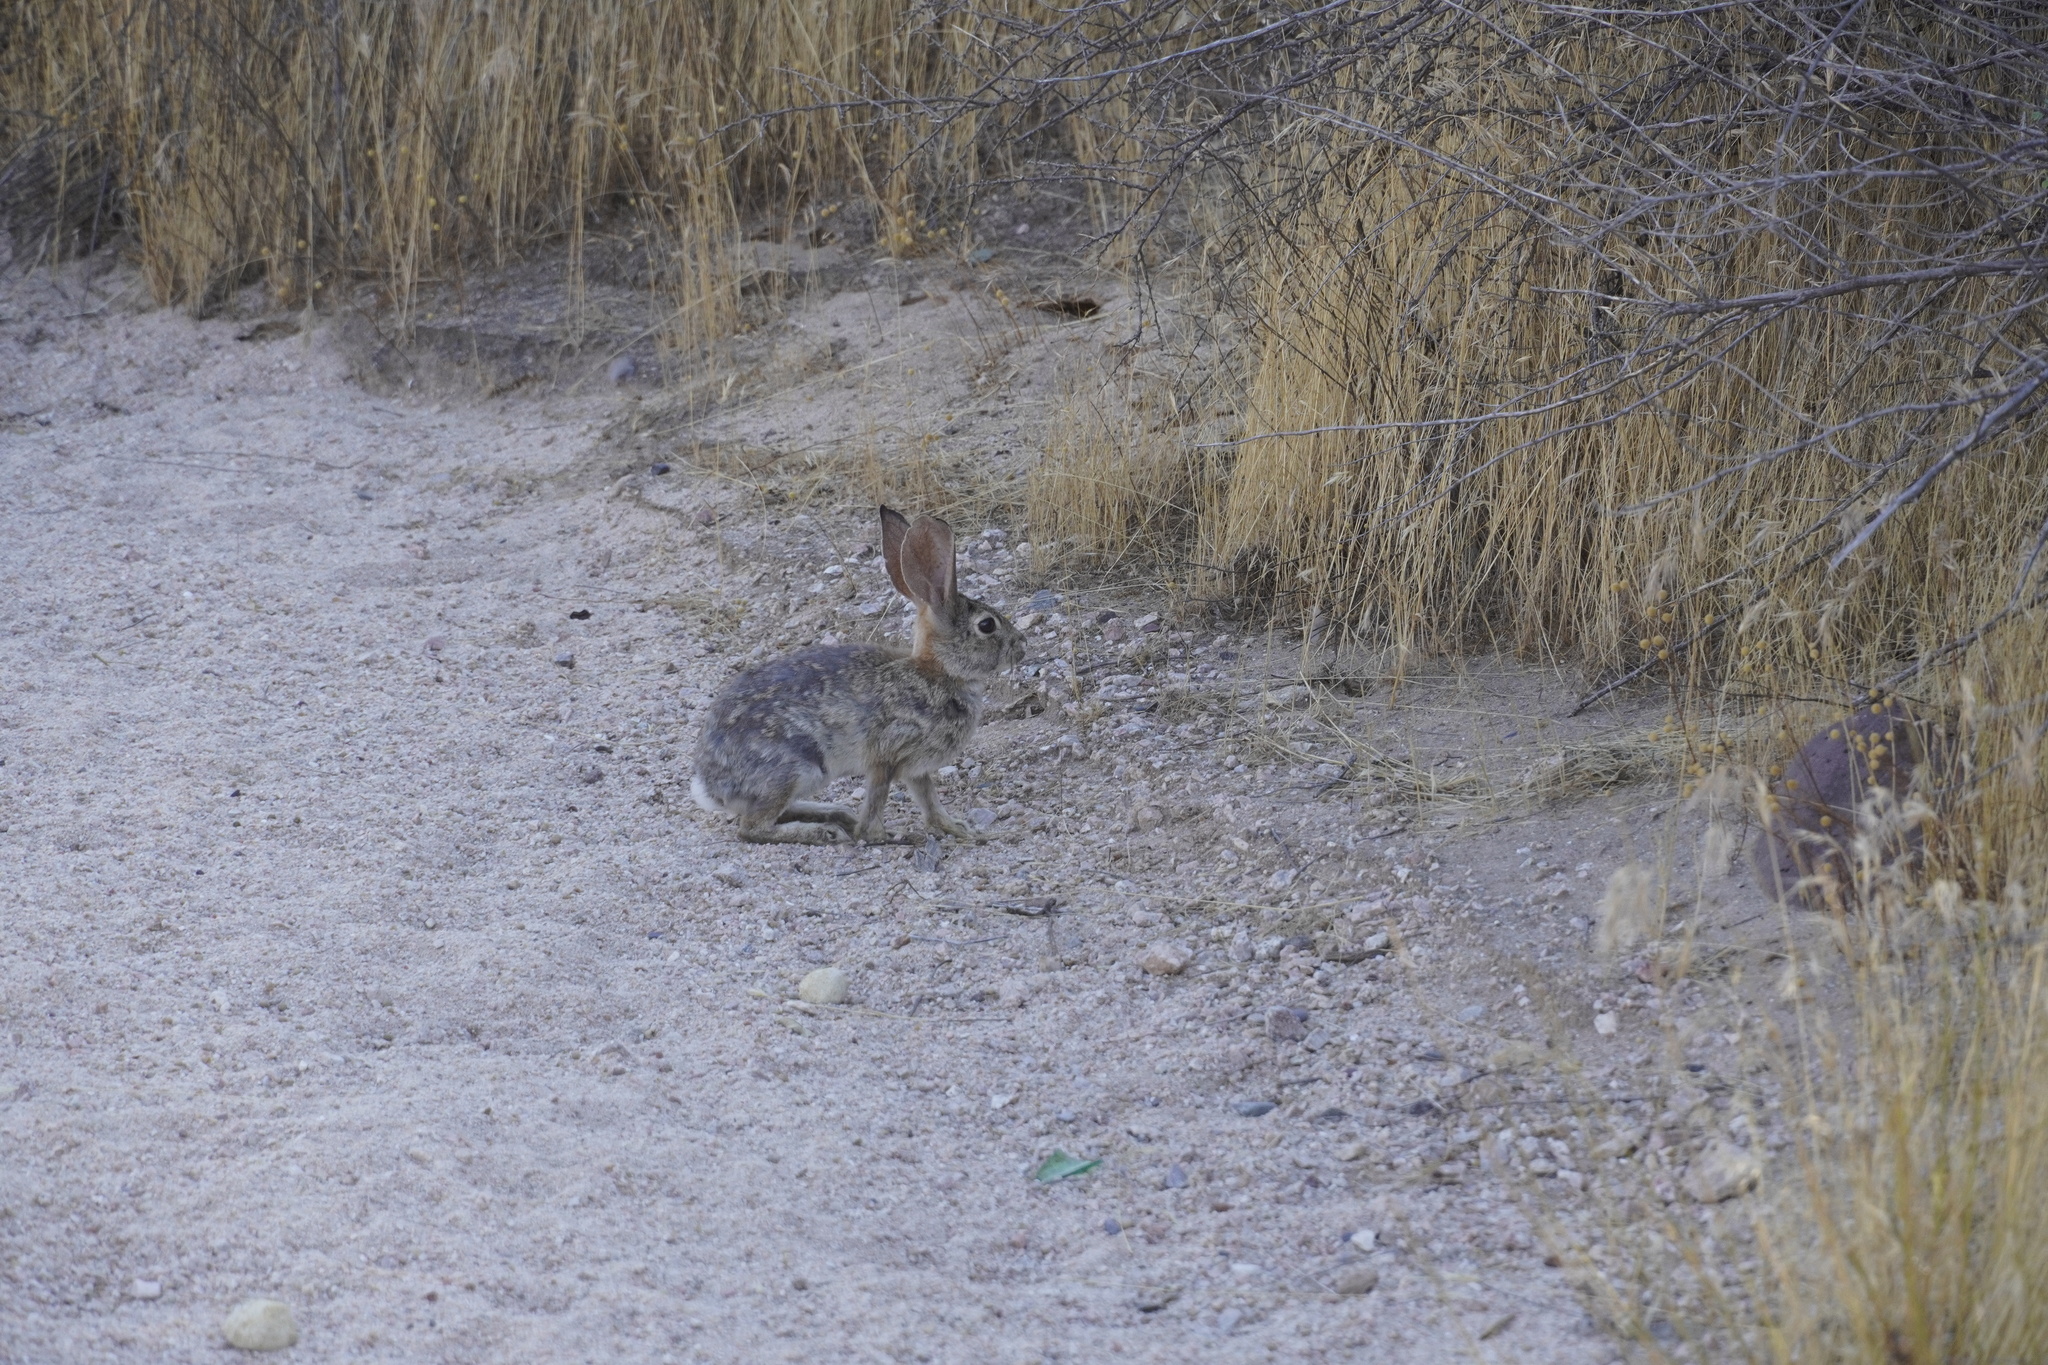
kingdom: Animalia
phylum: Chordata
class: Mammalia
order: Lagomorpha
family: Leporidae
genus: Sylvilagus
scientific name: Sylvilagus audubonii
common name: Desert cottontail
